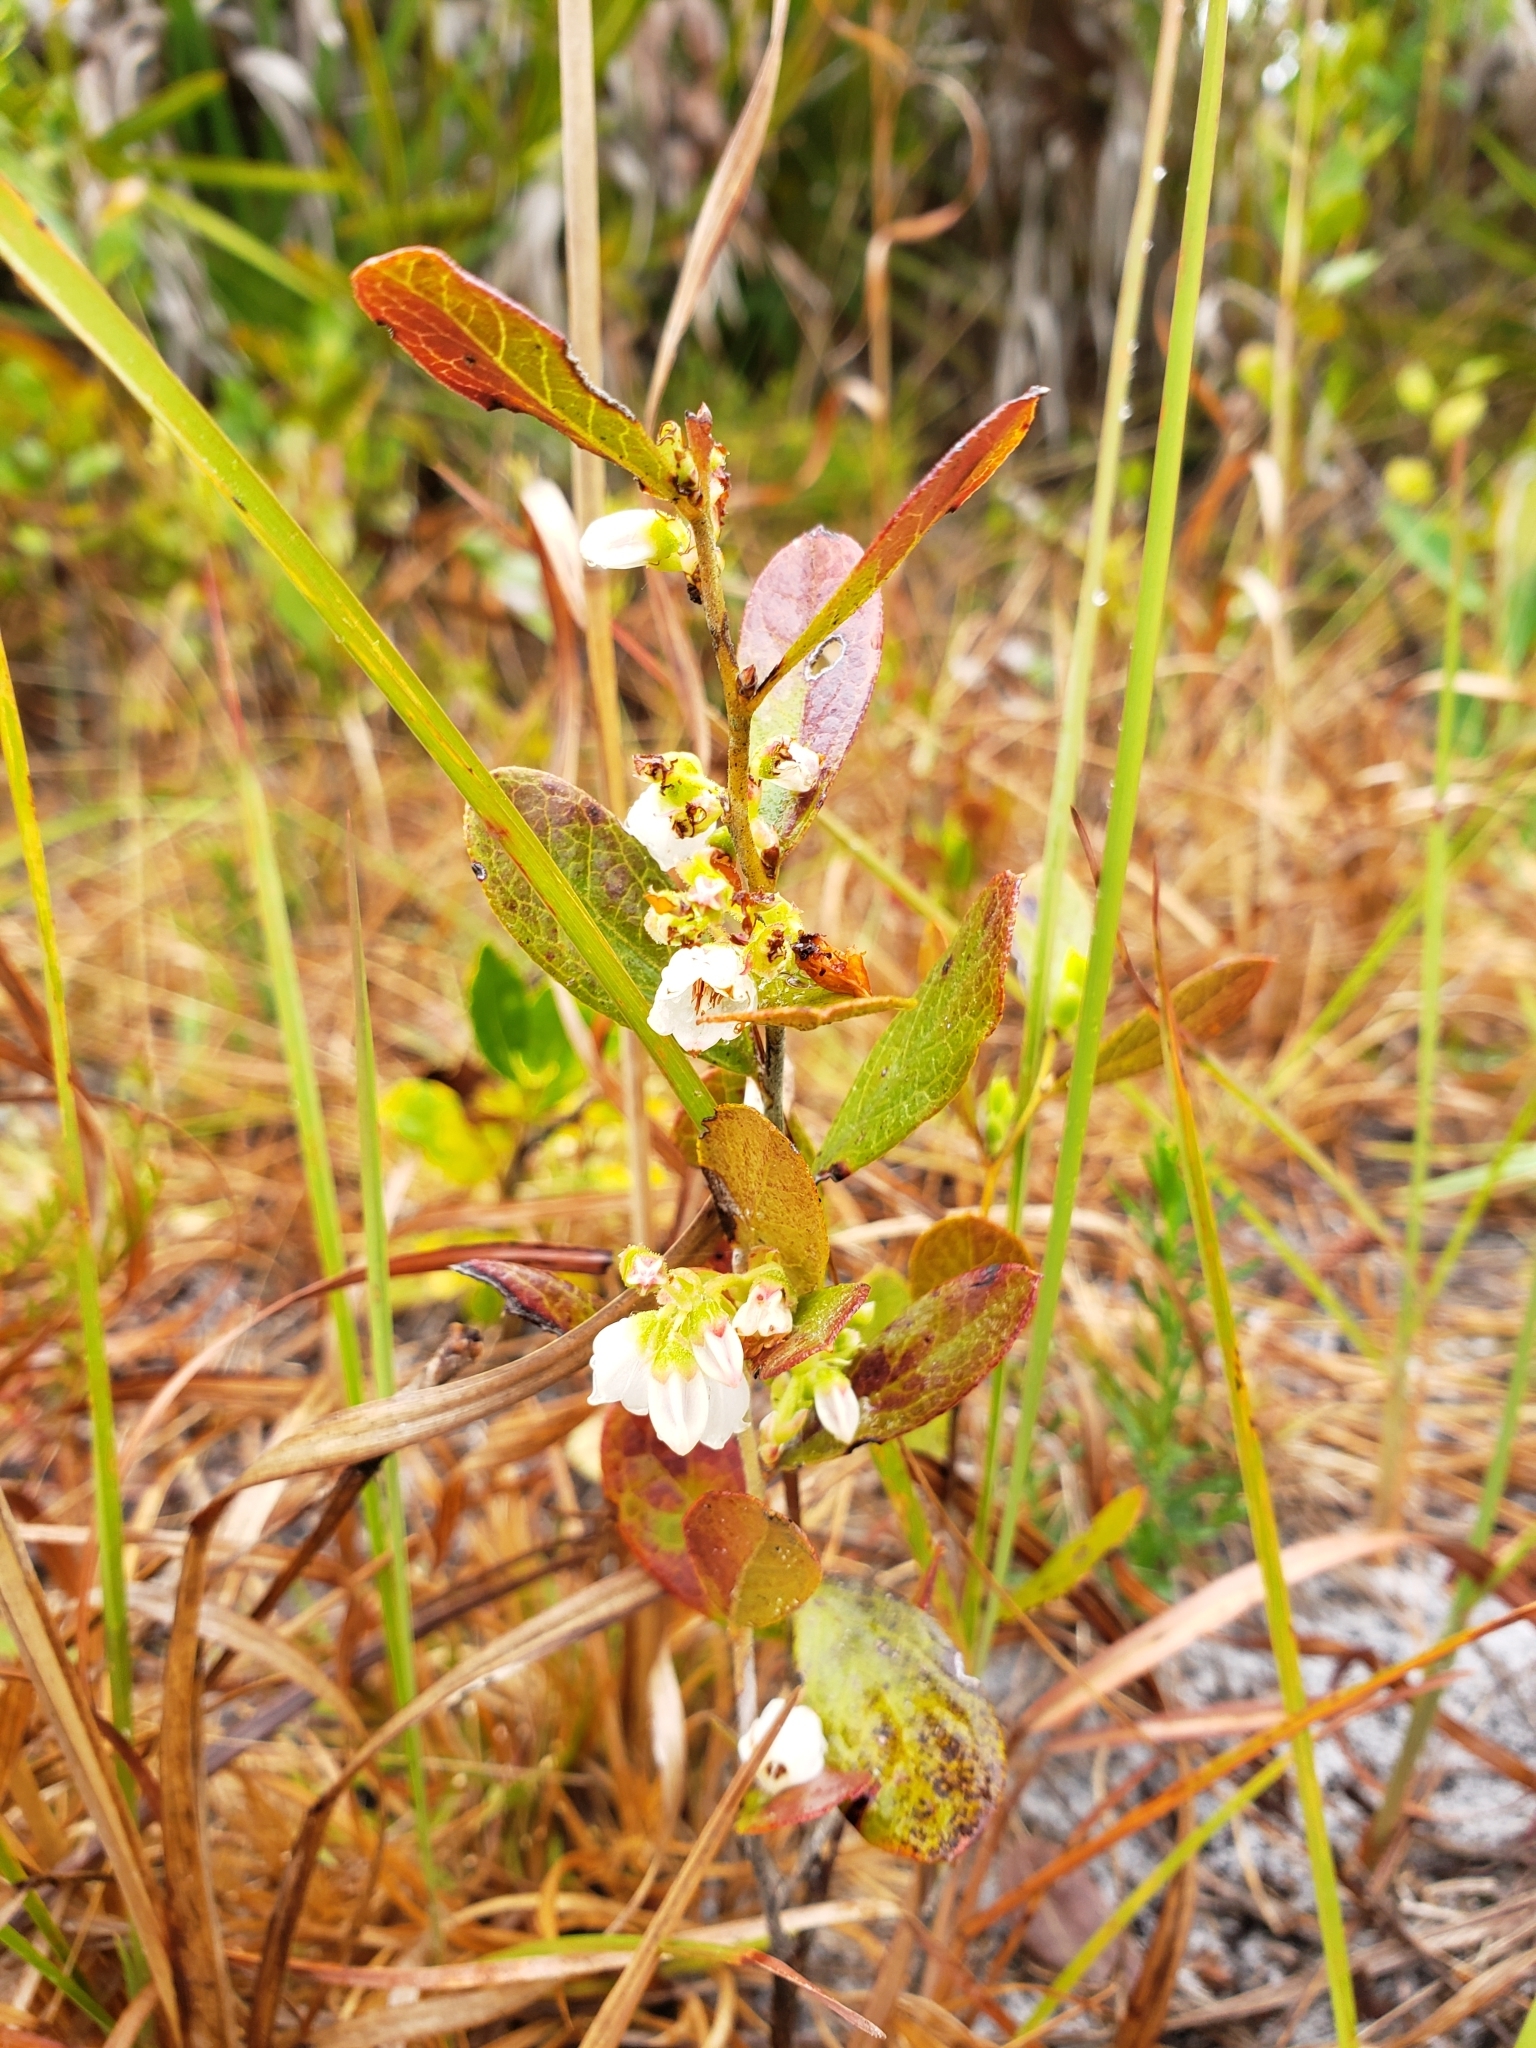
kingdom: Plantae
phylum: Tracheophyta
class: Magnoliopsida
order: Ericales
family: Ericaceae
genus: Gaylussacia
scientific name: Gaylussacia dumosa
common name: Dwarf huckleberry
